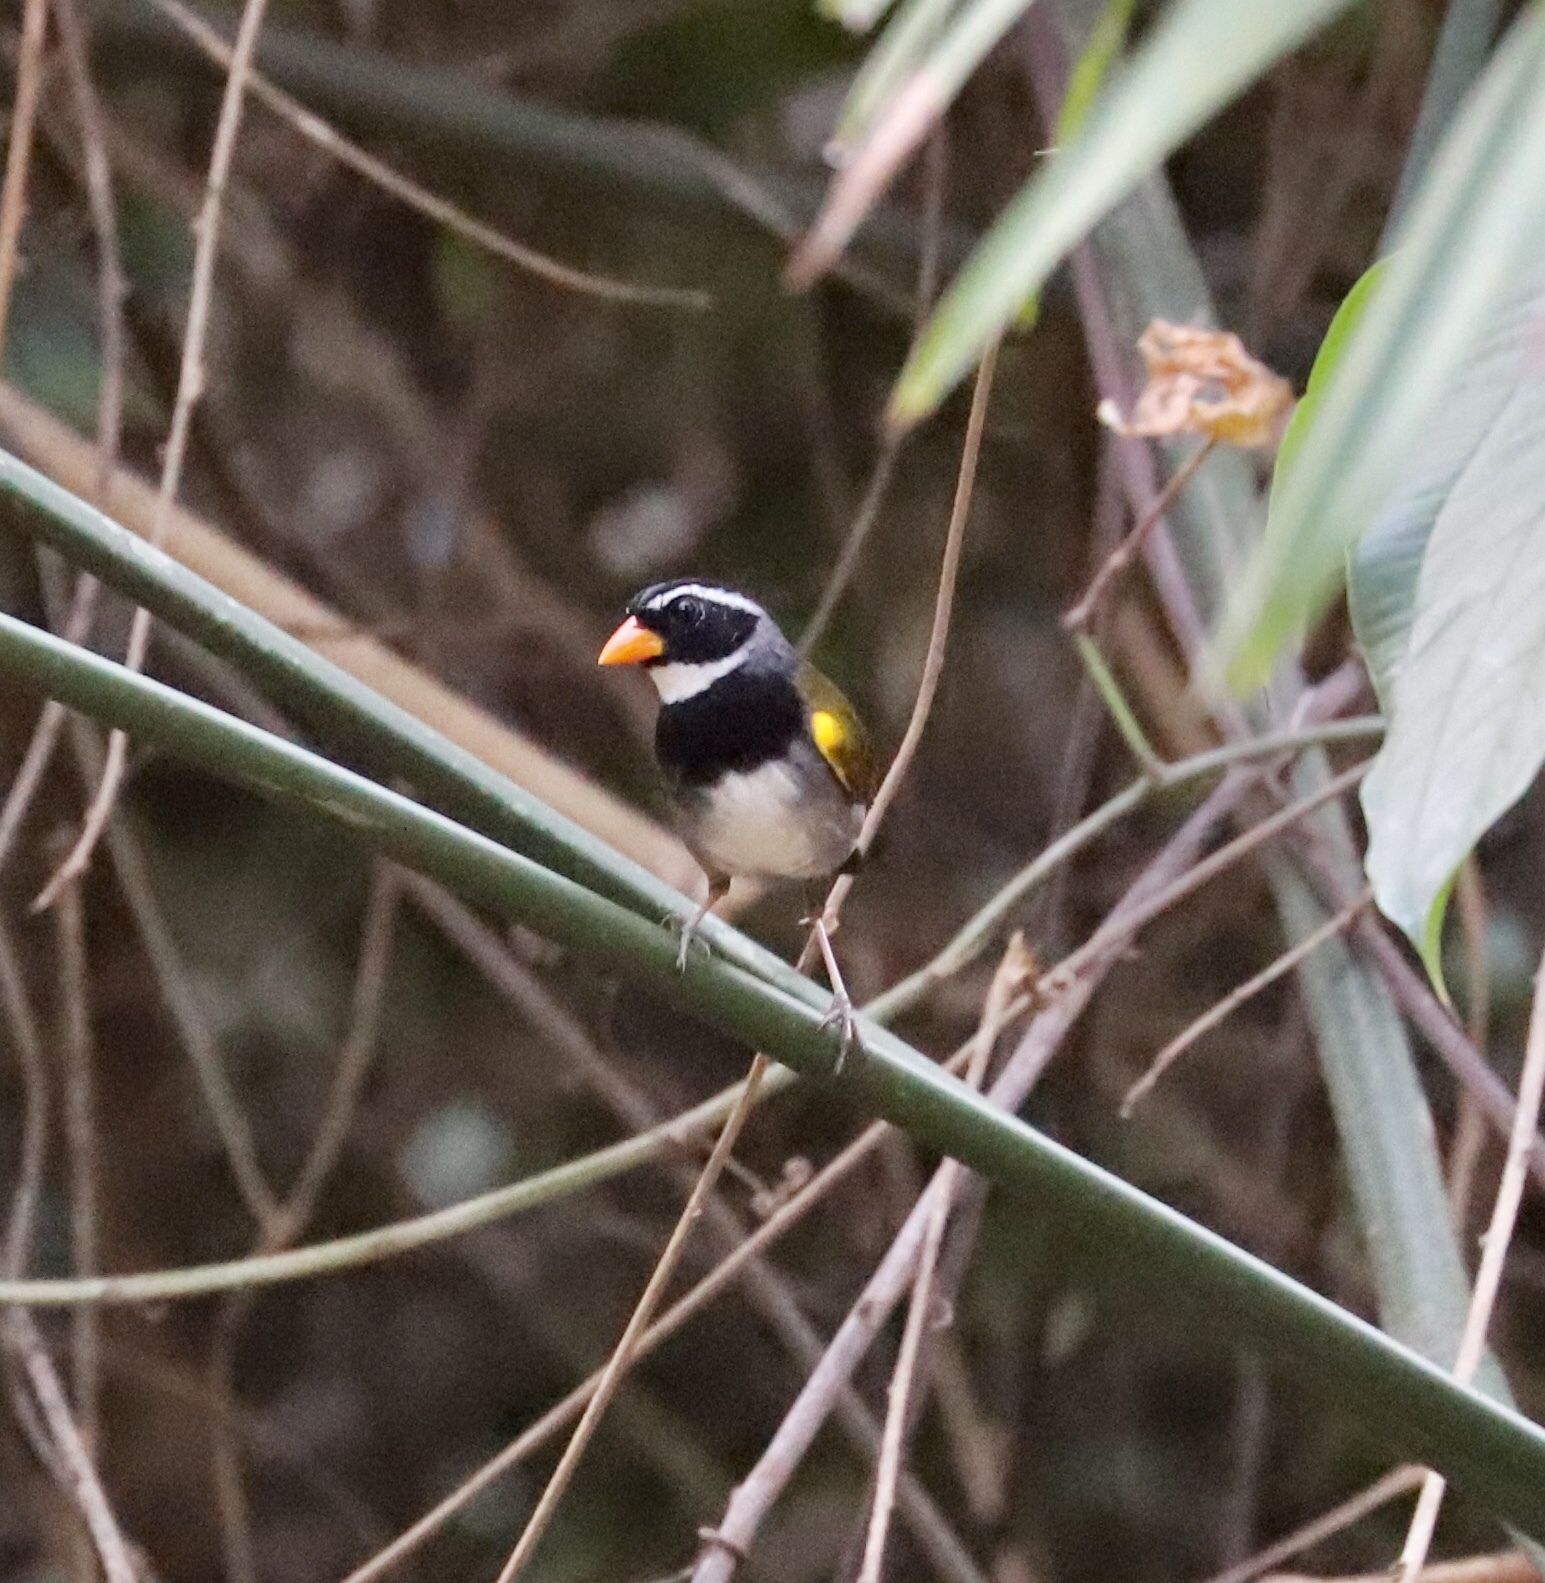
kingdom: Animalia
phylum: Chordata
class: Aves
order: Passeriformes
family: Passerellidae
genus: Arremon
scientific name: Arremon aurantiirostris
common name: Orange-billed sparrow
